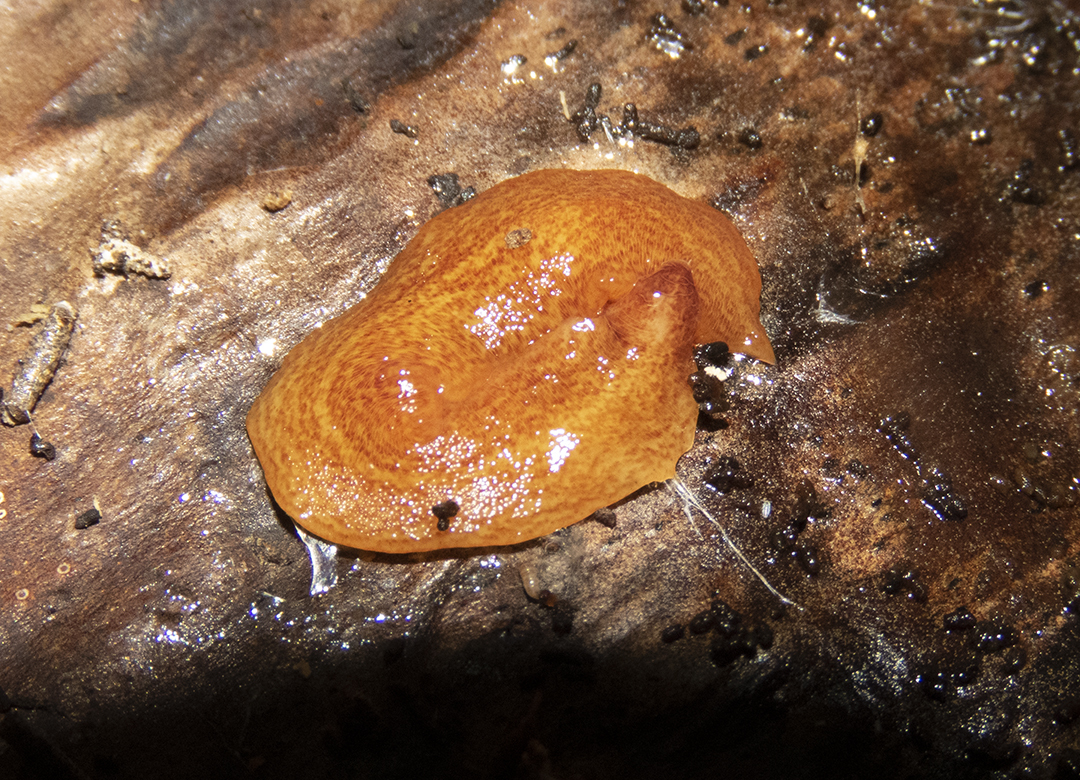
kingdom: Animalia
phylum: Platyhelminthes
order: Tricladida
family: Geoplanidae
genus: Newzealandia
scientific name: Newzealandia graffii
